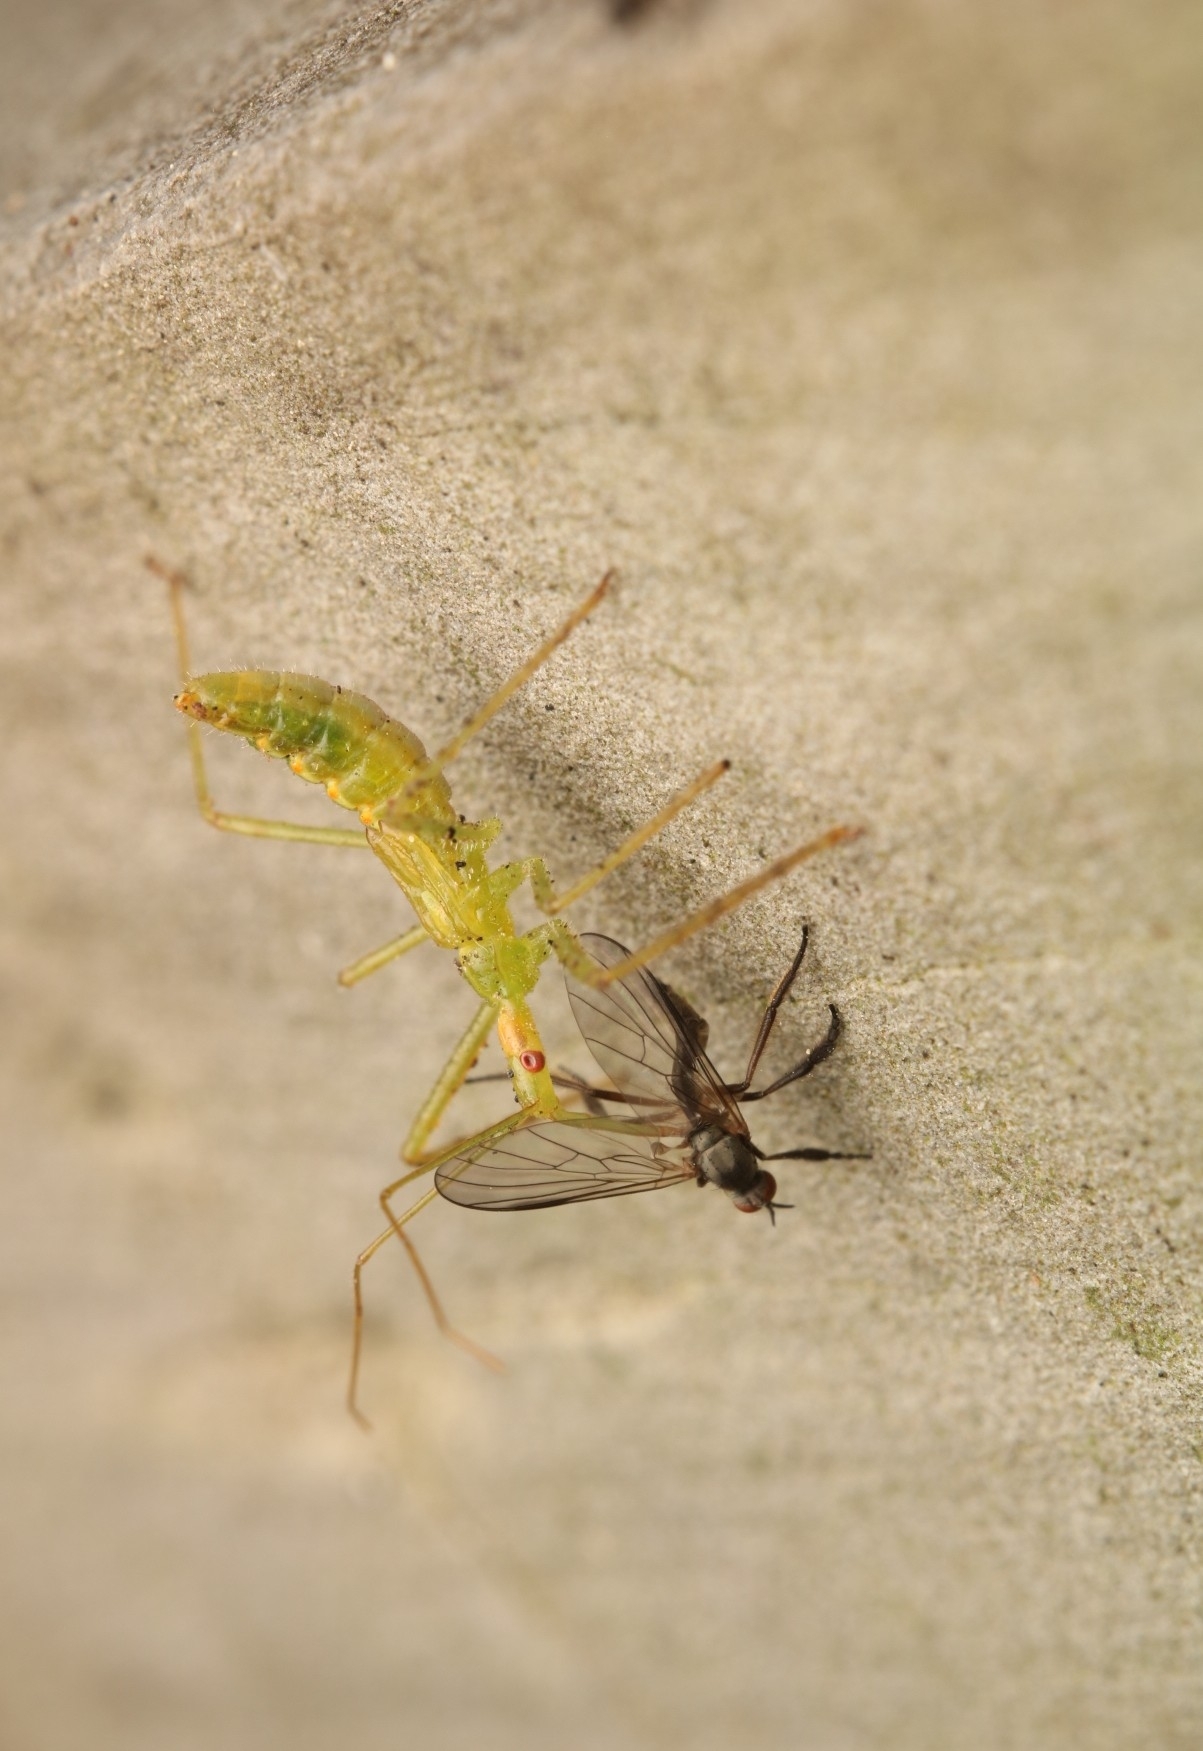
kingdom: Animalia
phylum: Arthropoda
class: Insecta
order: Hemiptera
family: Reduviidae
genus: Zelus
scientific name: Zelus luridus
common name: Pale green assassin bug
